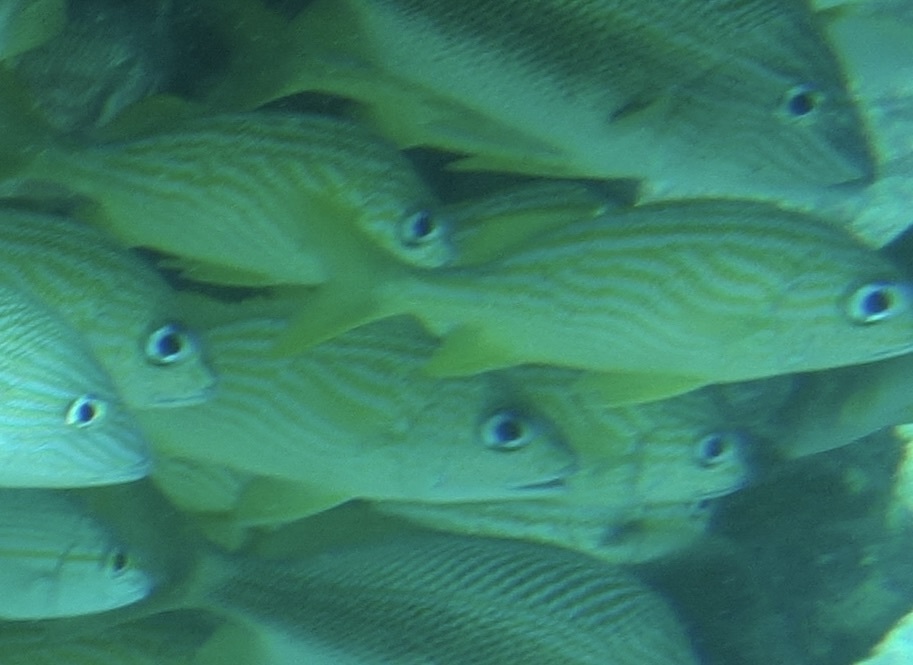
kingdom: Animalia
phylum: Chordata
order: Perciformes
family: Haemulidae
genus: Haemulon
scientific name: Haemulon flavolineatum
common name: French grunt
